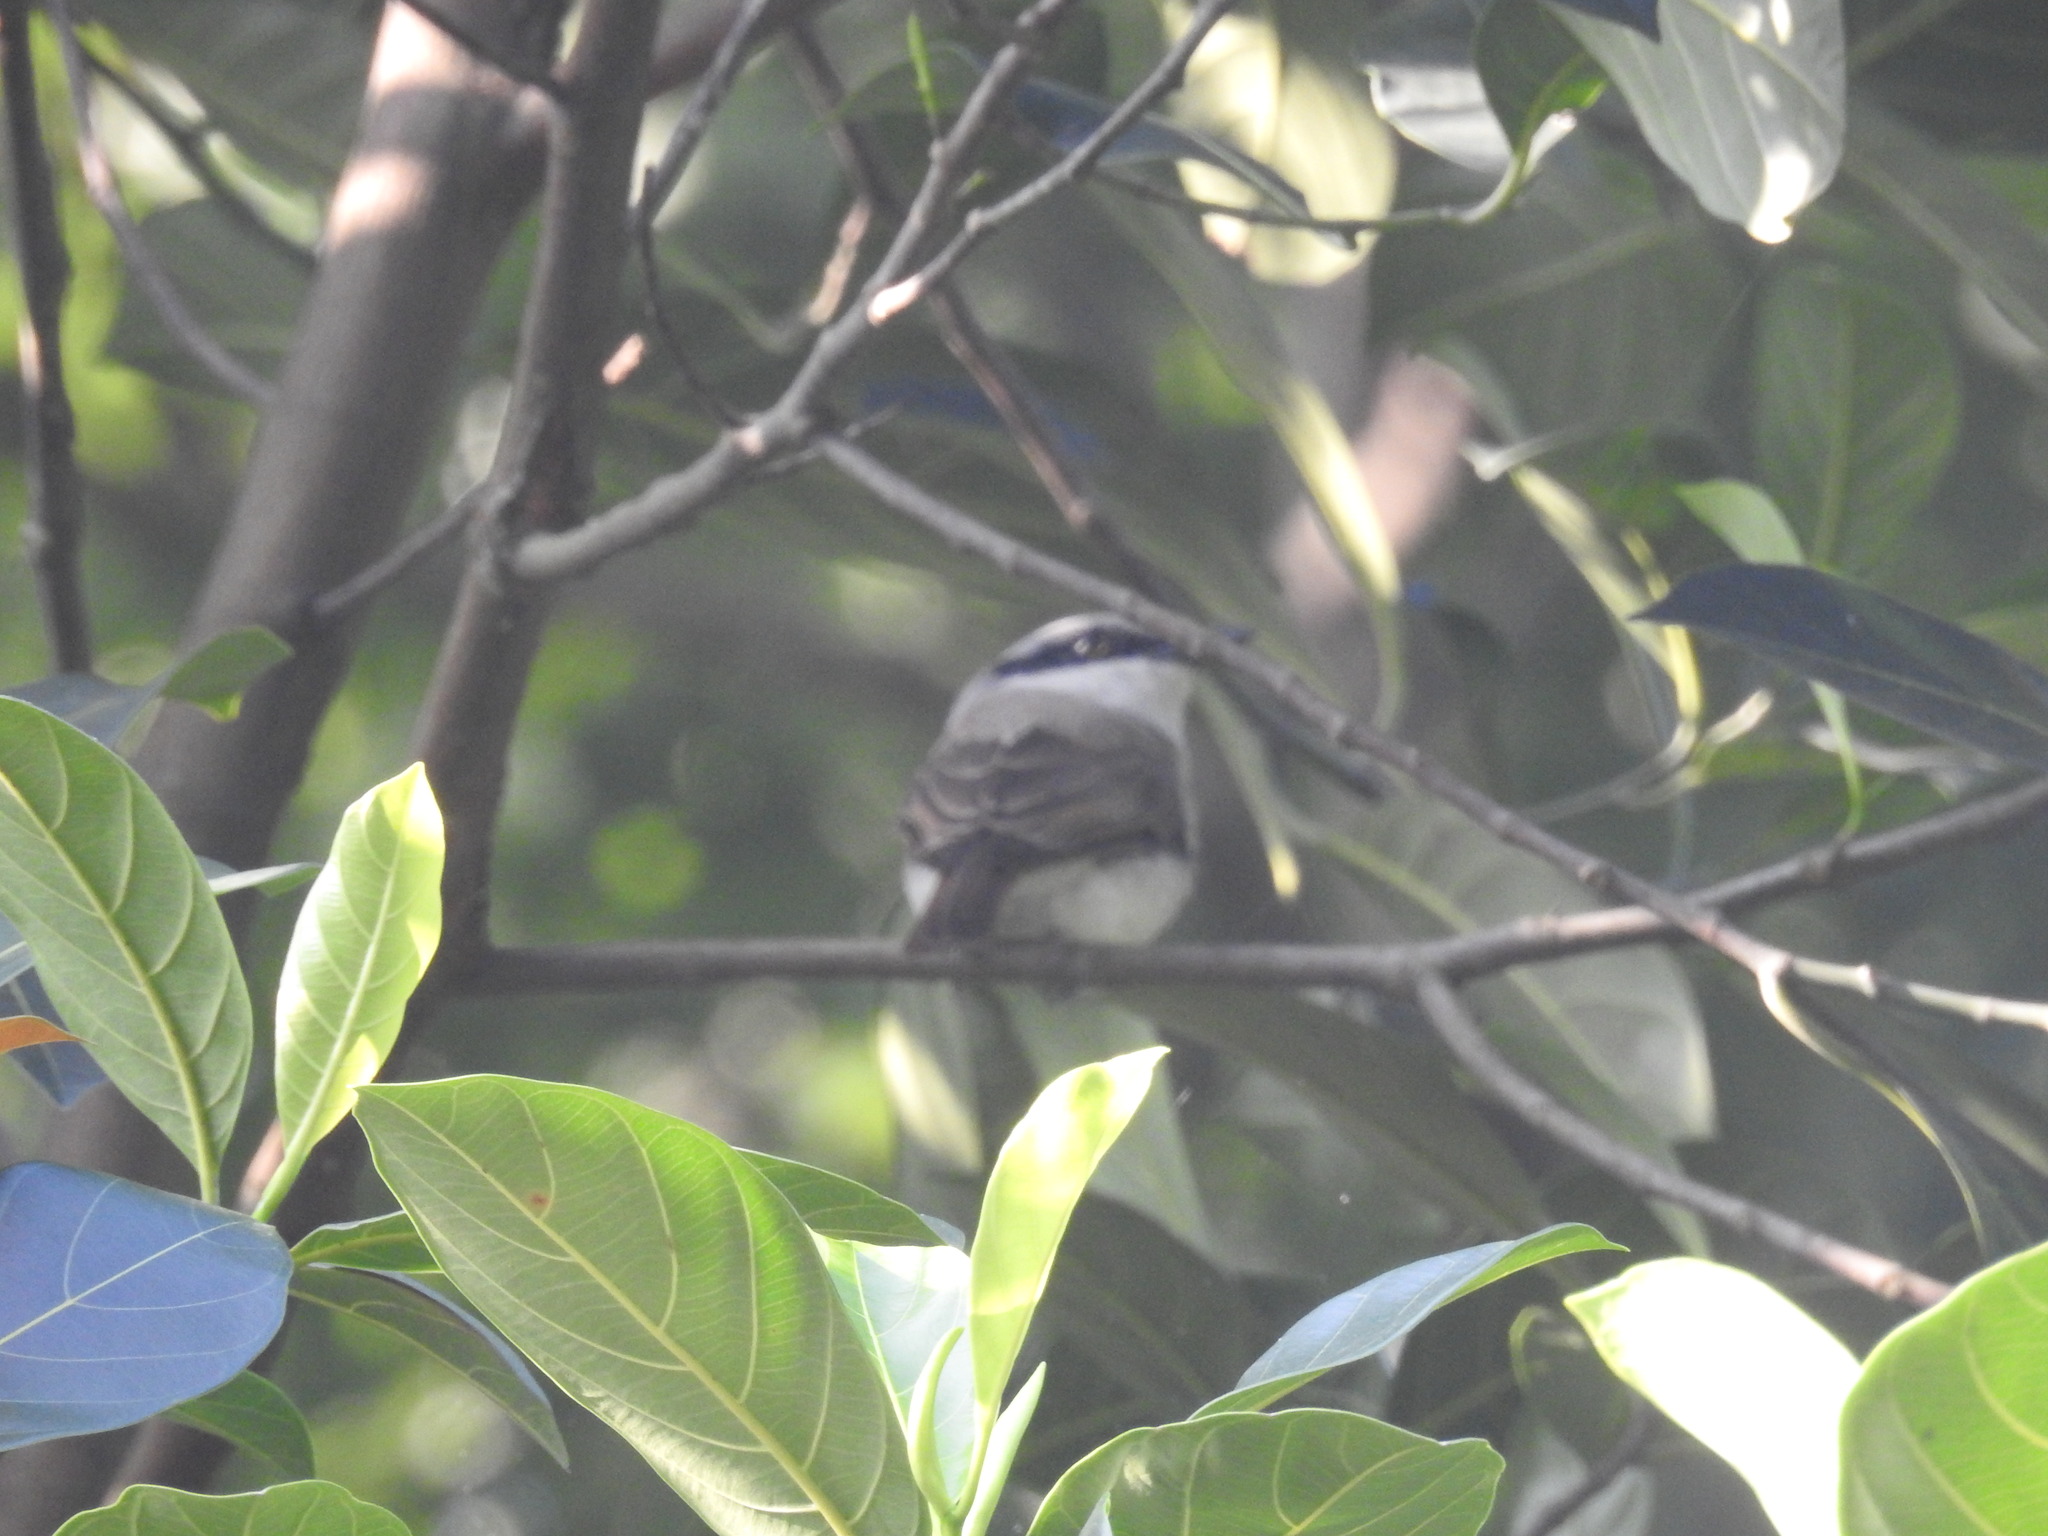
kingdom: Animalia
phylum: Chordata
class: Aves
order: Passeriformes
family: Tephrodornithidae
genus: Tephrodornis
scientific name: Tephrodornis virgatus
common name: Large woodshrike
